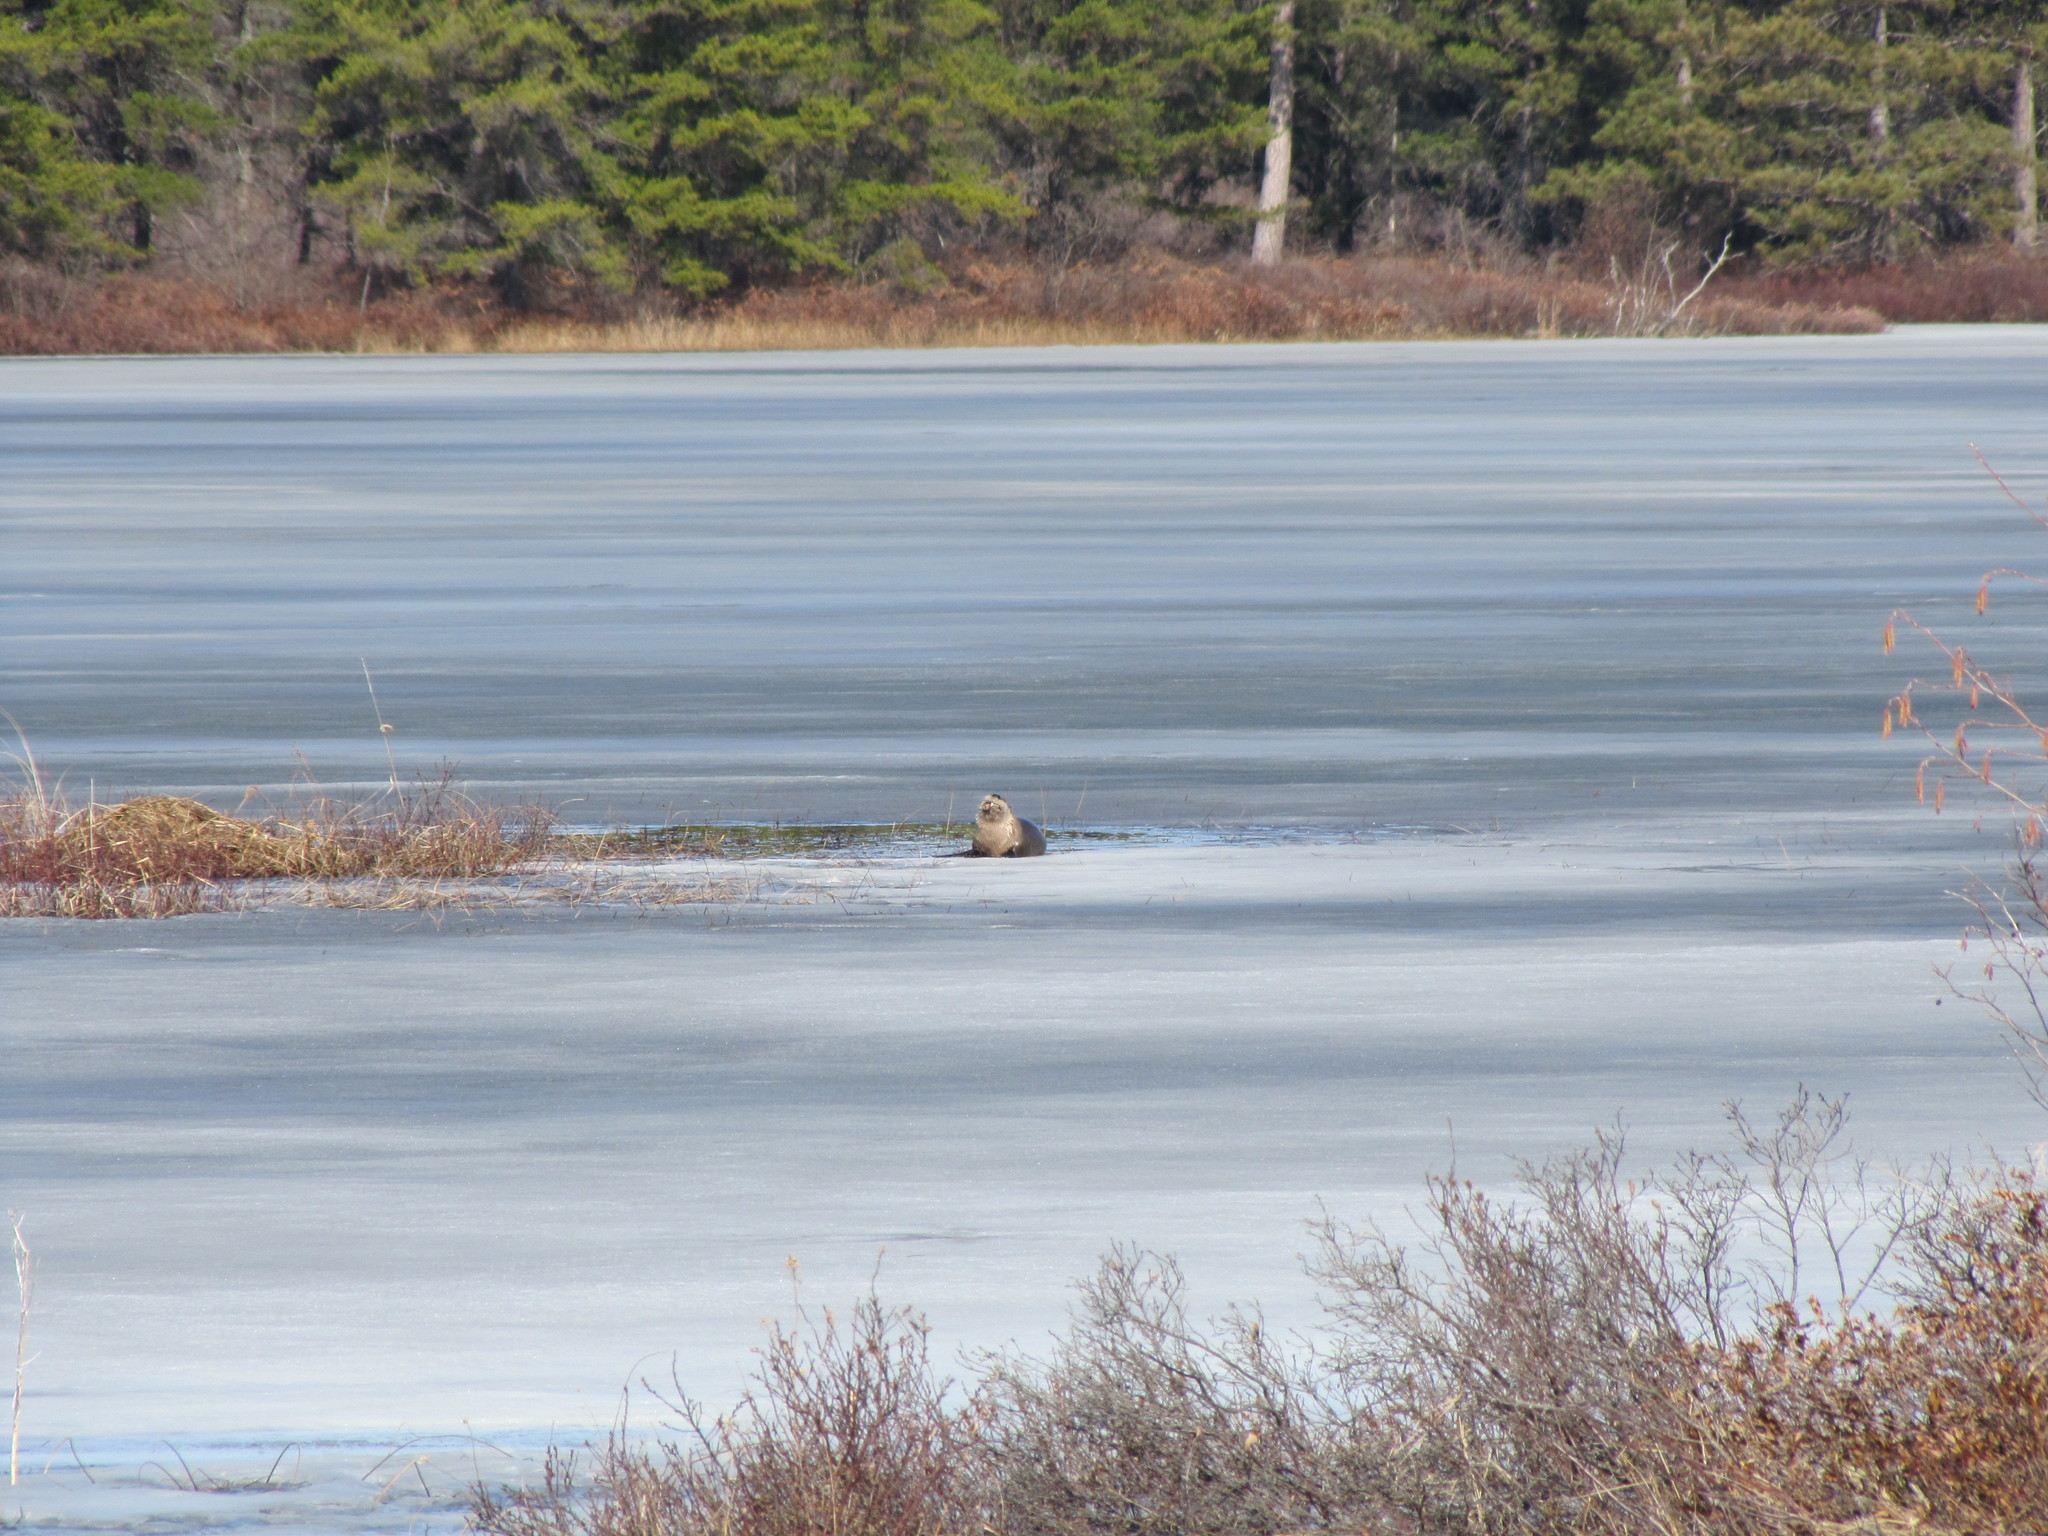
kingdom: Animalia
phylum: Chordata
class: Mammalia
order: Carnivora
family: Mustelidae
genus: Lontra
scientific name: Lontra canadensis
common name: North american river otter
